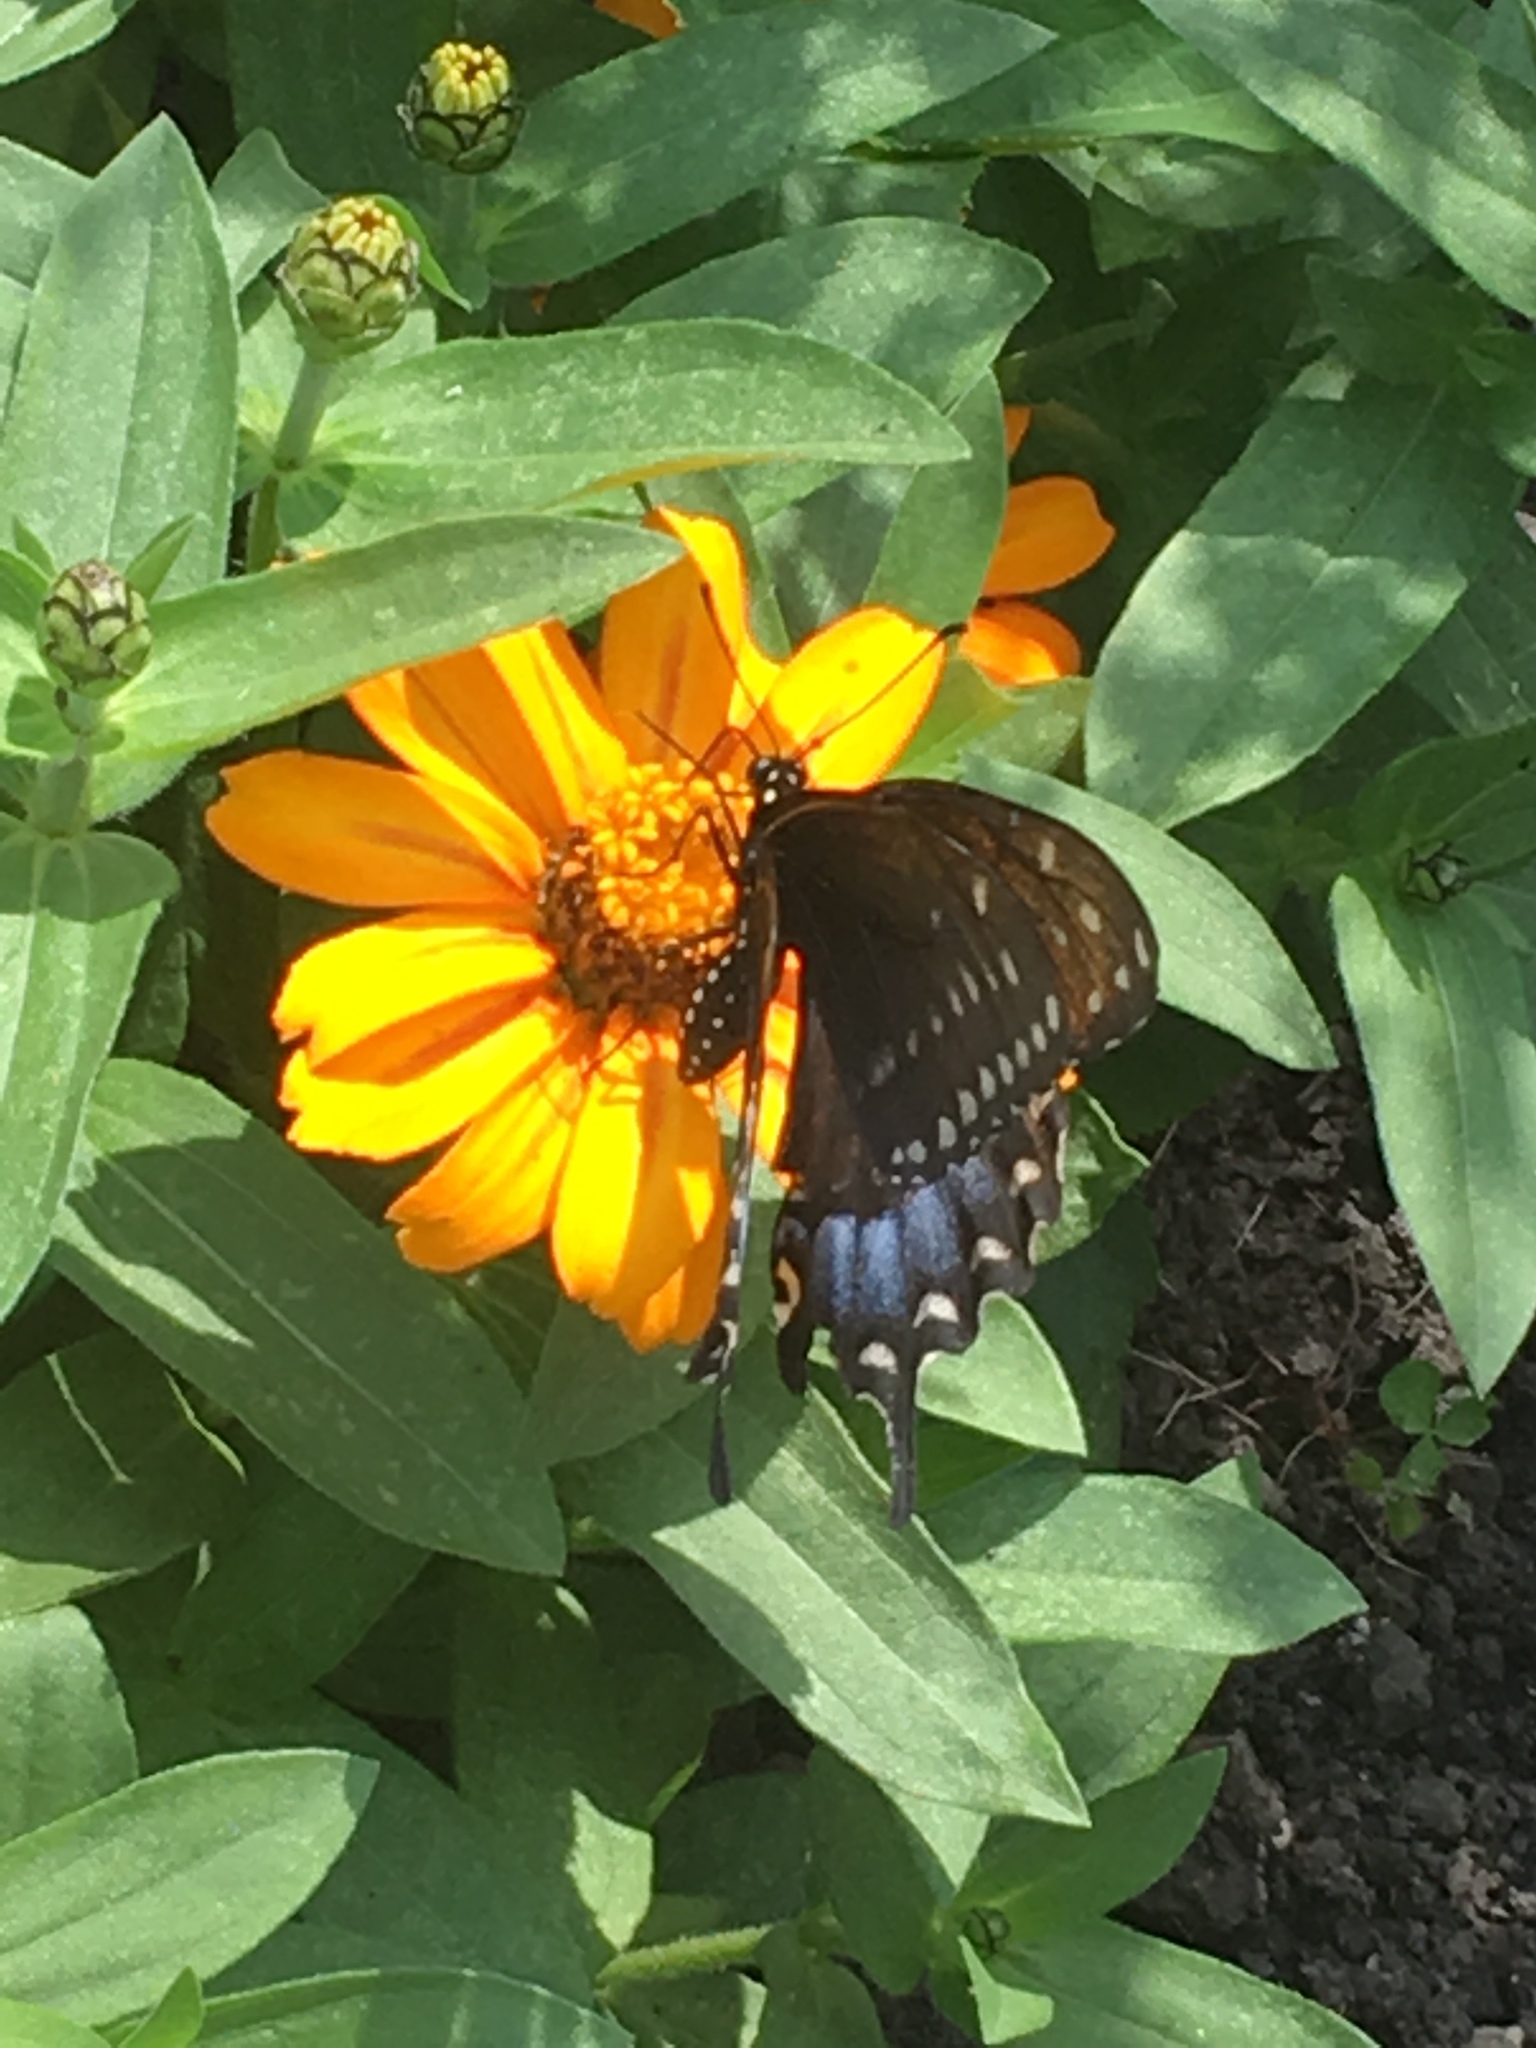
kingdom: Animalia
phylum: Arthropoda
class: Insecta
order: Lepidoptera
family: Papilionidae
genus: Papilio
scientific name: Papilio troilus
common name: Spicebush swallowtail
